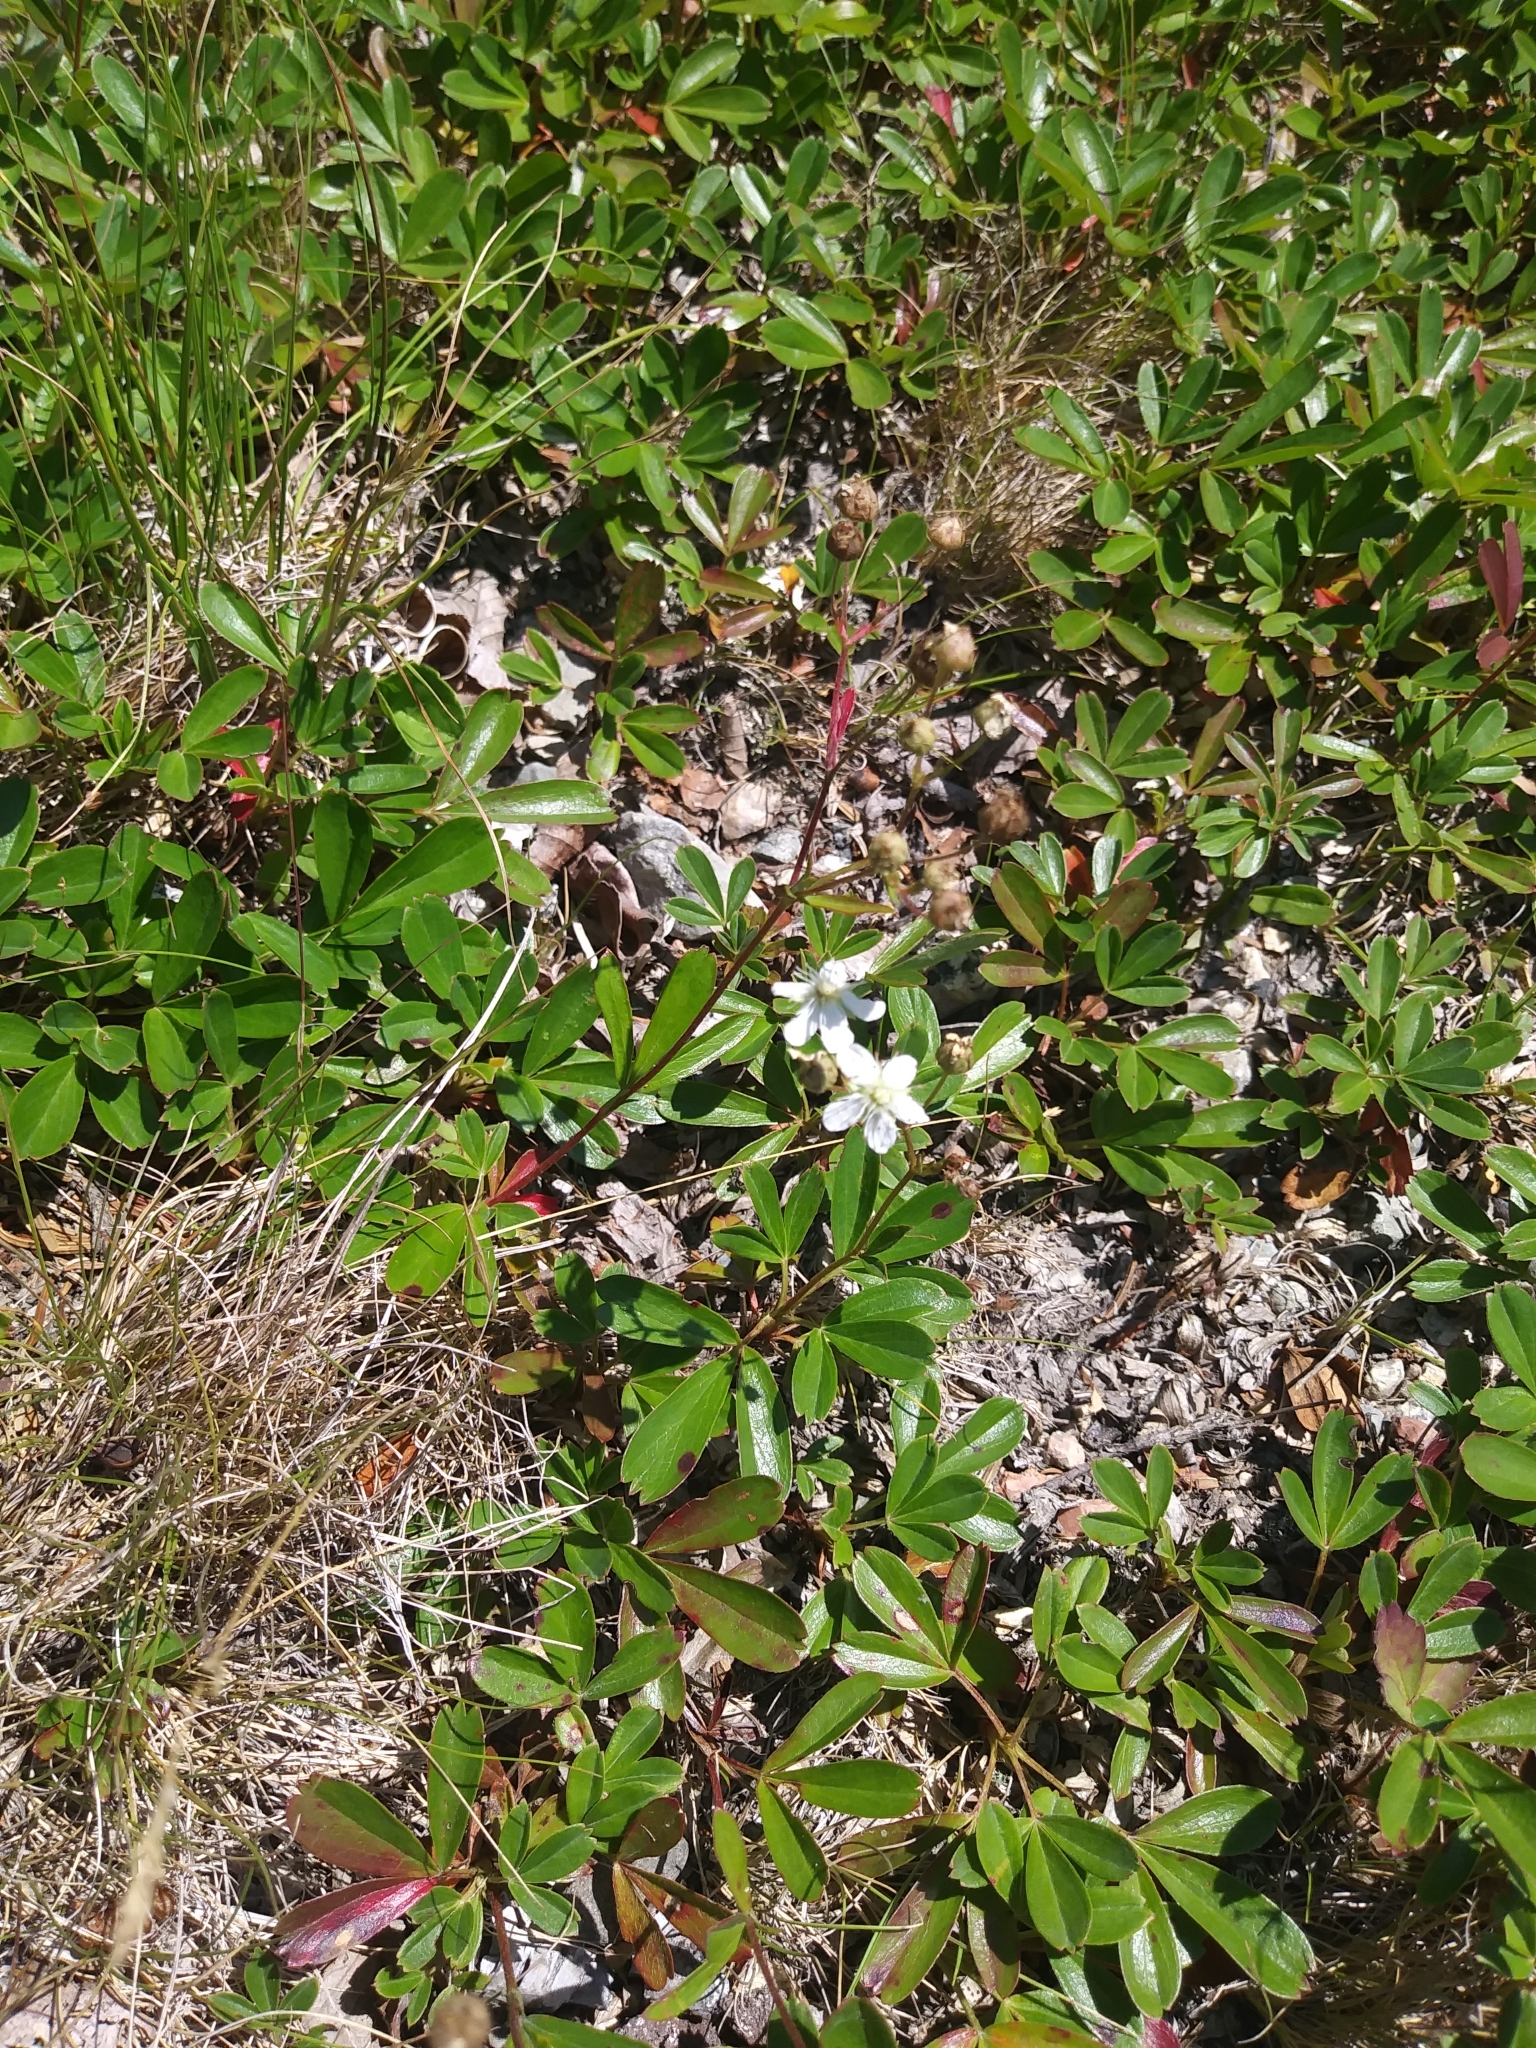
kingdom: Plantae
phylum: Tracheophyta
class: Magnoliopsida
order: Rosales
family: Rosaceae
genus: Sibbaldia
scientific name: Sibbaldia tridentata
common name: Three-toothed cinquefoil
